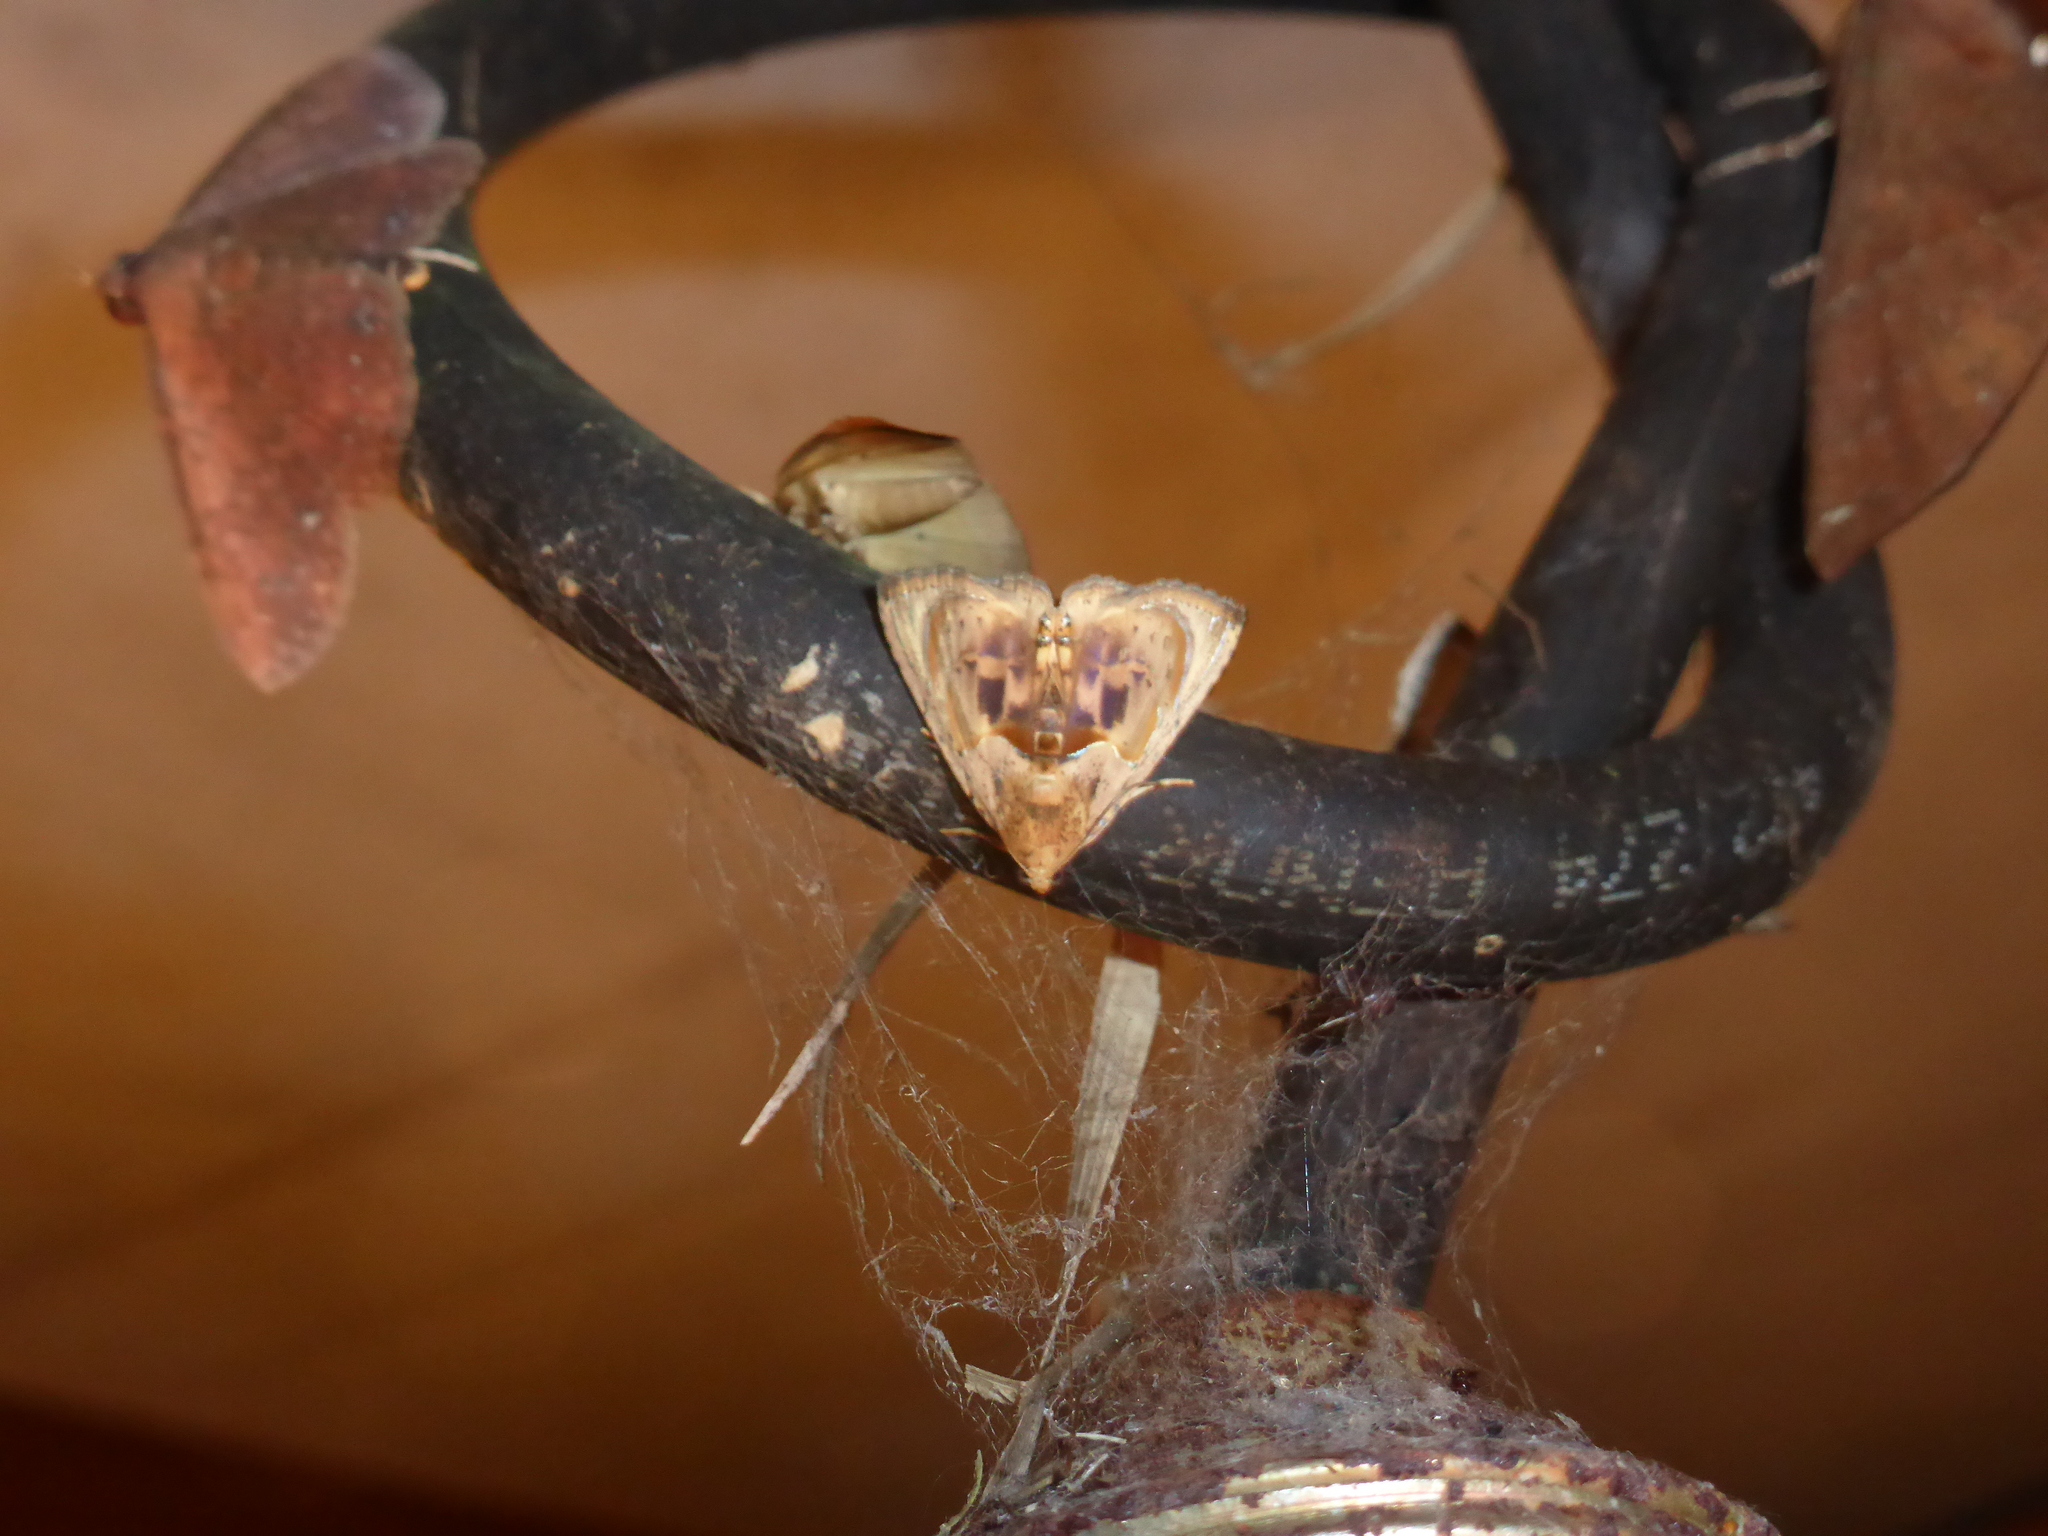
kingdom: Animalia
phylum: Arthropoda
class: Insecta
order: Lepidoptera
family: Erebidae
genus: Calydia
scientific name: Calydia osseata
